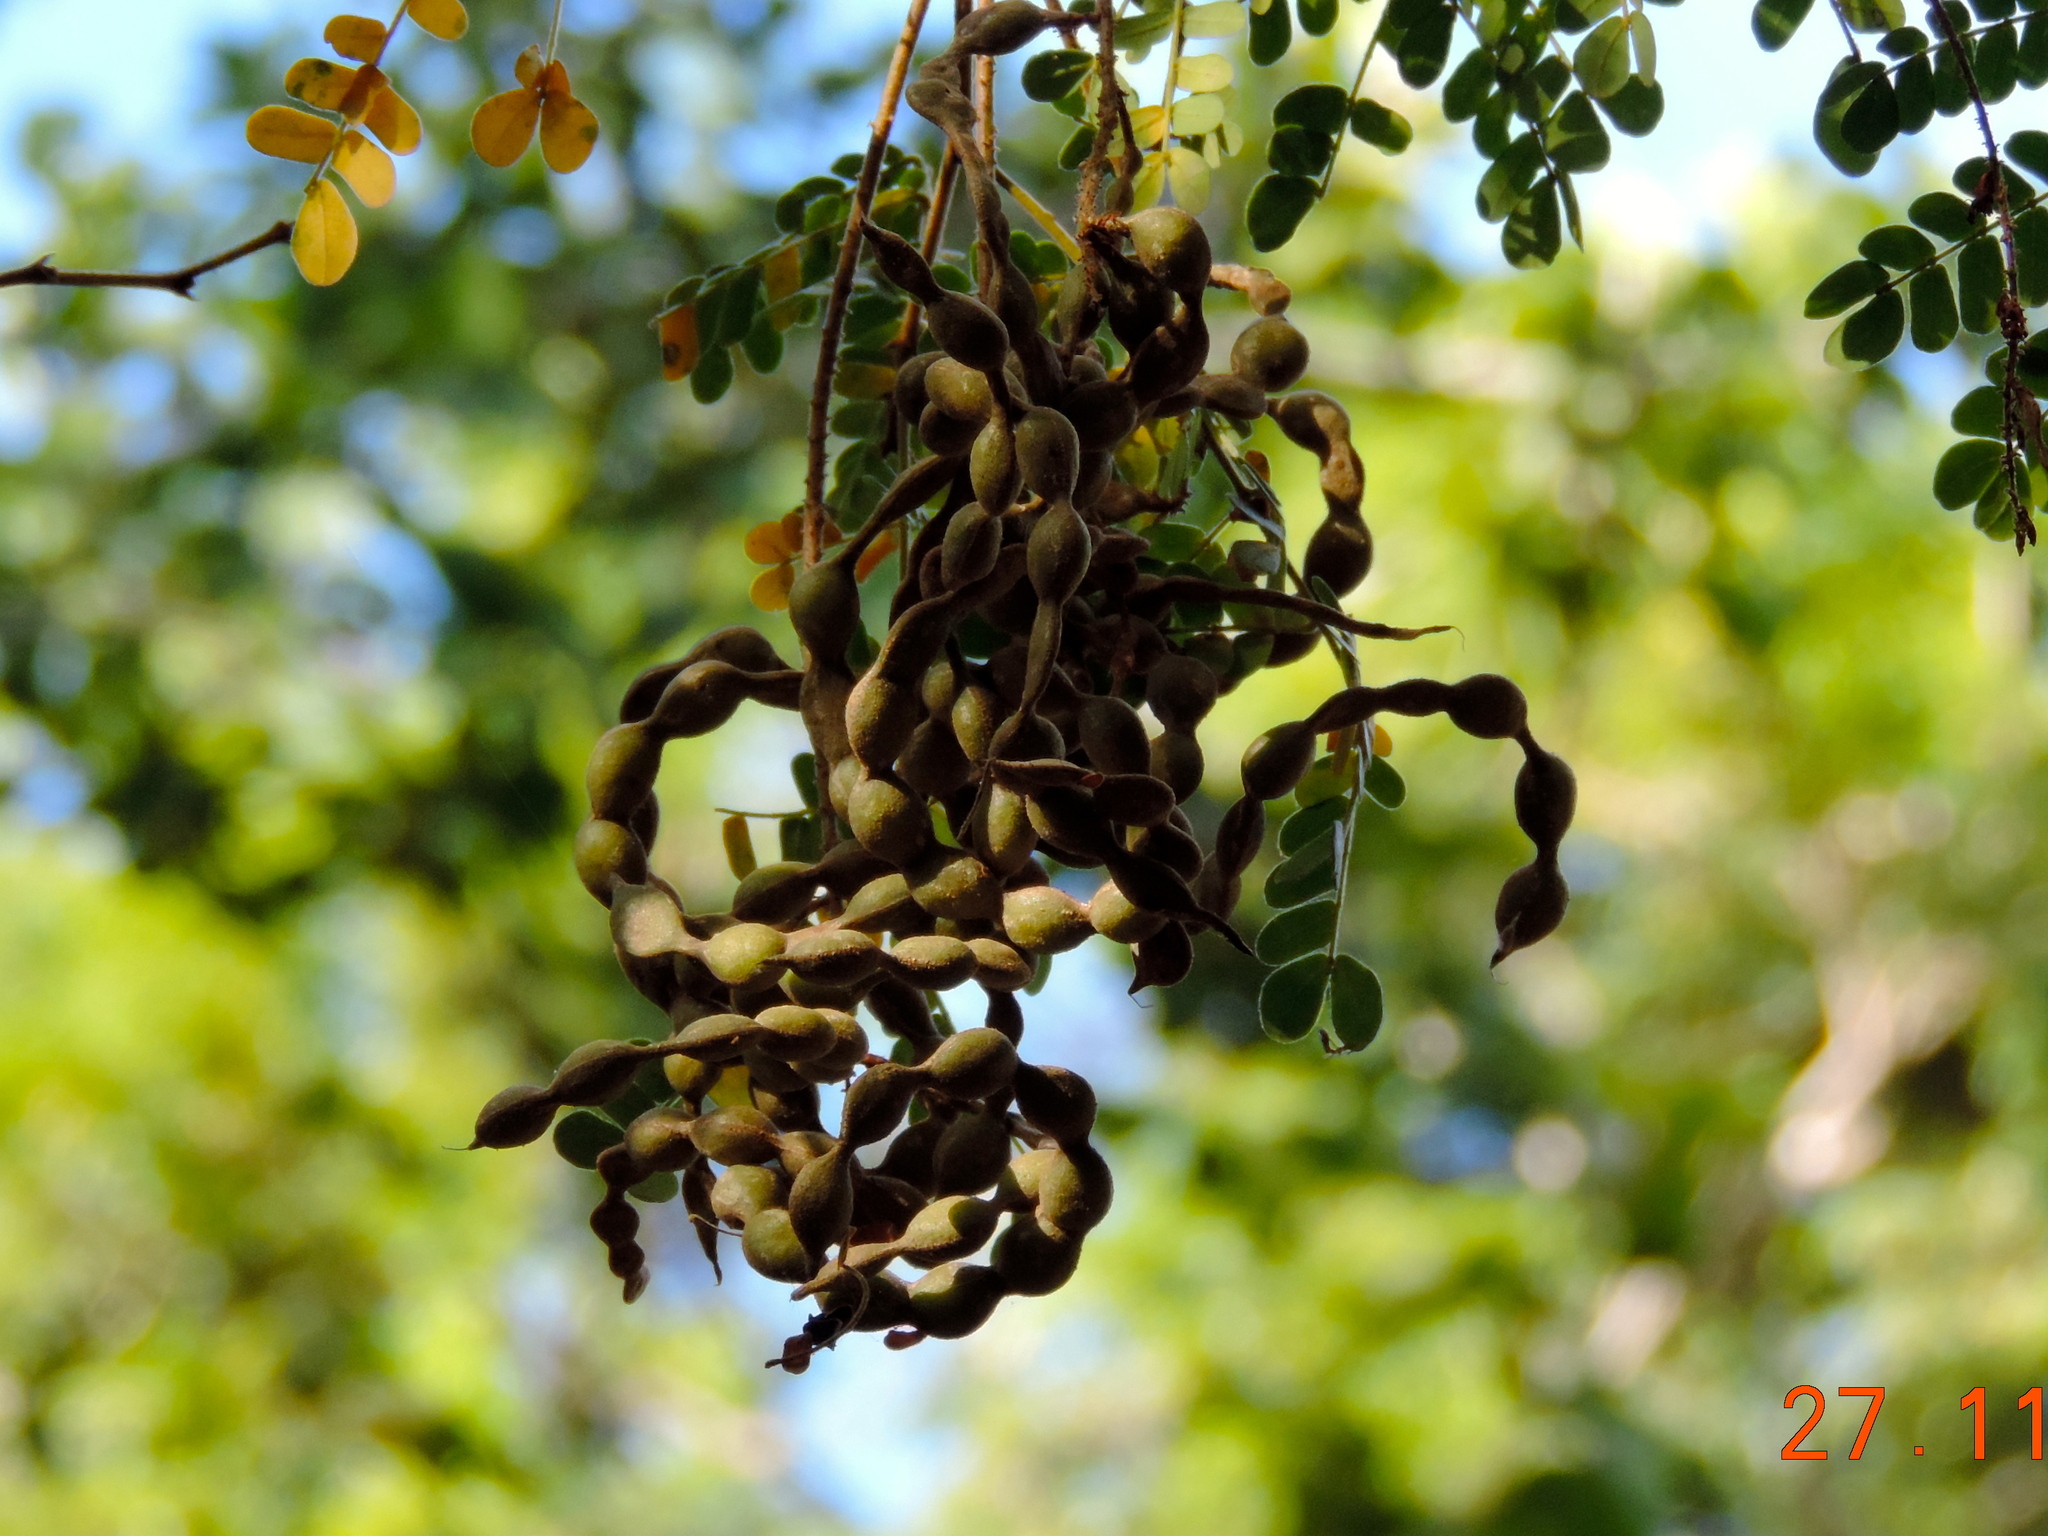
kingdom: Plantae
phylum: Tracheophyta
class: Magnoliopsida
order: Fabales
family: Fabaceae
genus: Chloroleucon
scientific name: Chloroleucon mangense
